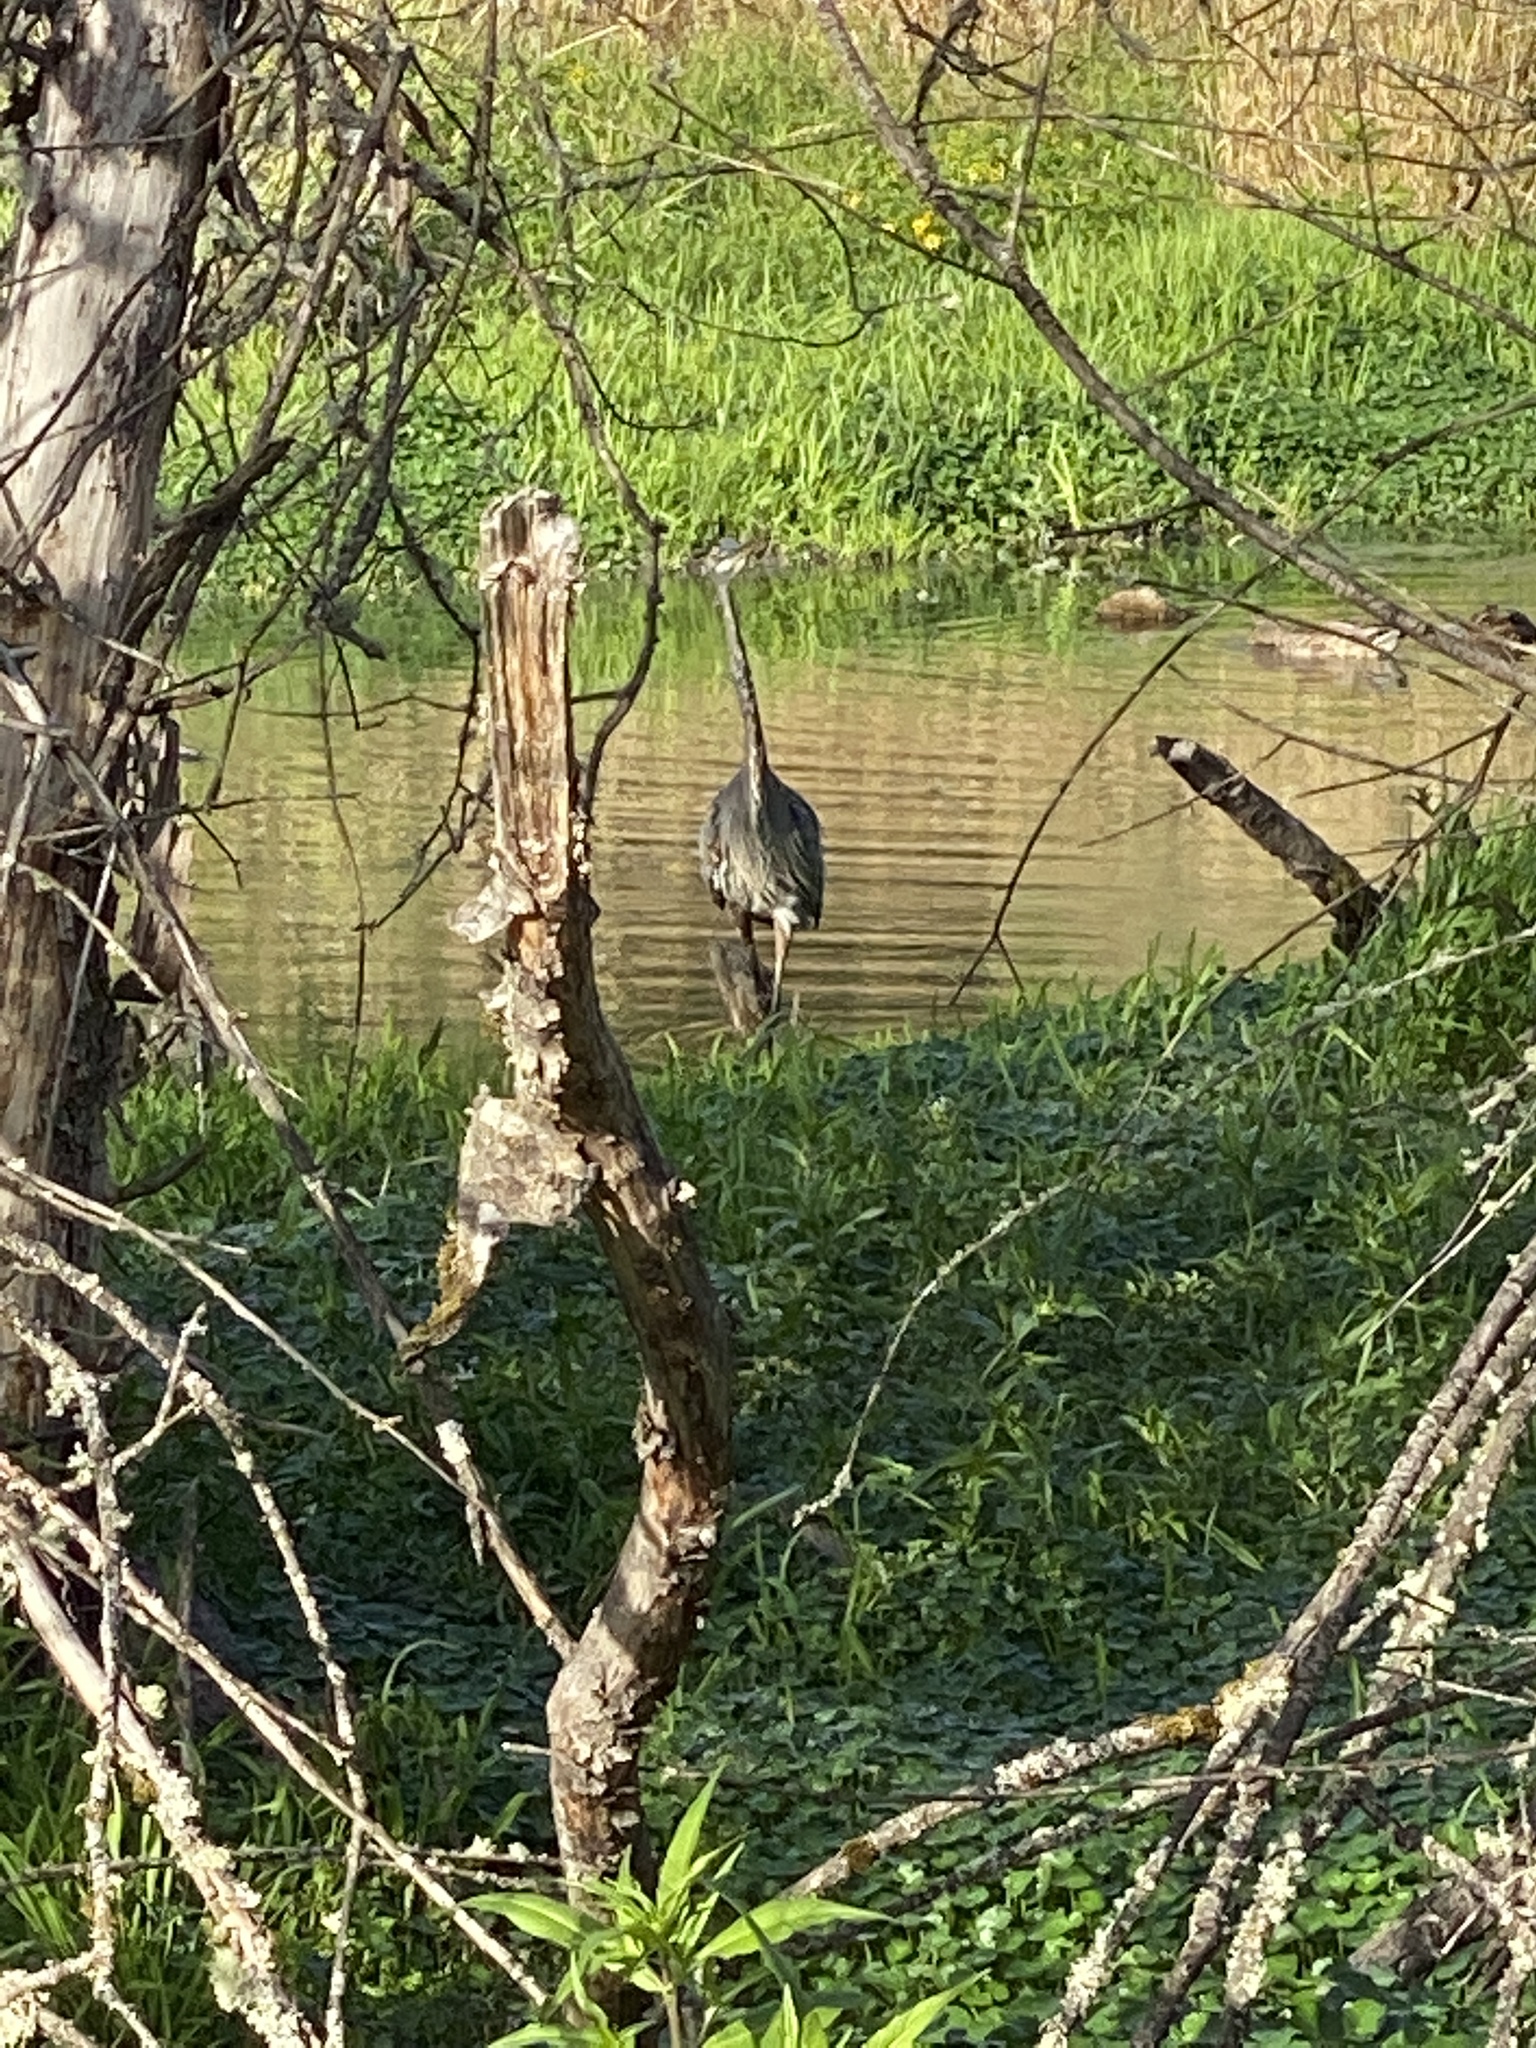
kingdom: Animalia
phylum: Chordata
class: Aves
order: Pelecaniformes
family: Ardeidae
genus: Ardea
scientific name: Ardea herodias
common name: Great blue heron
